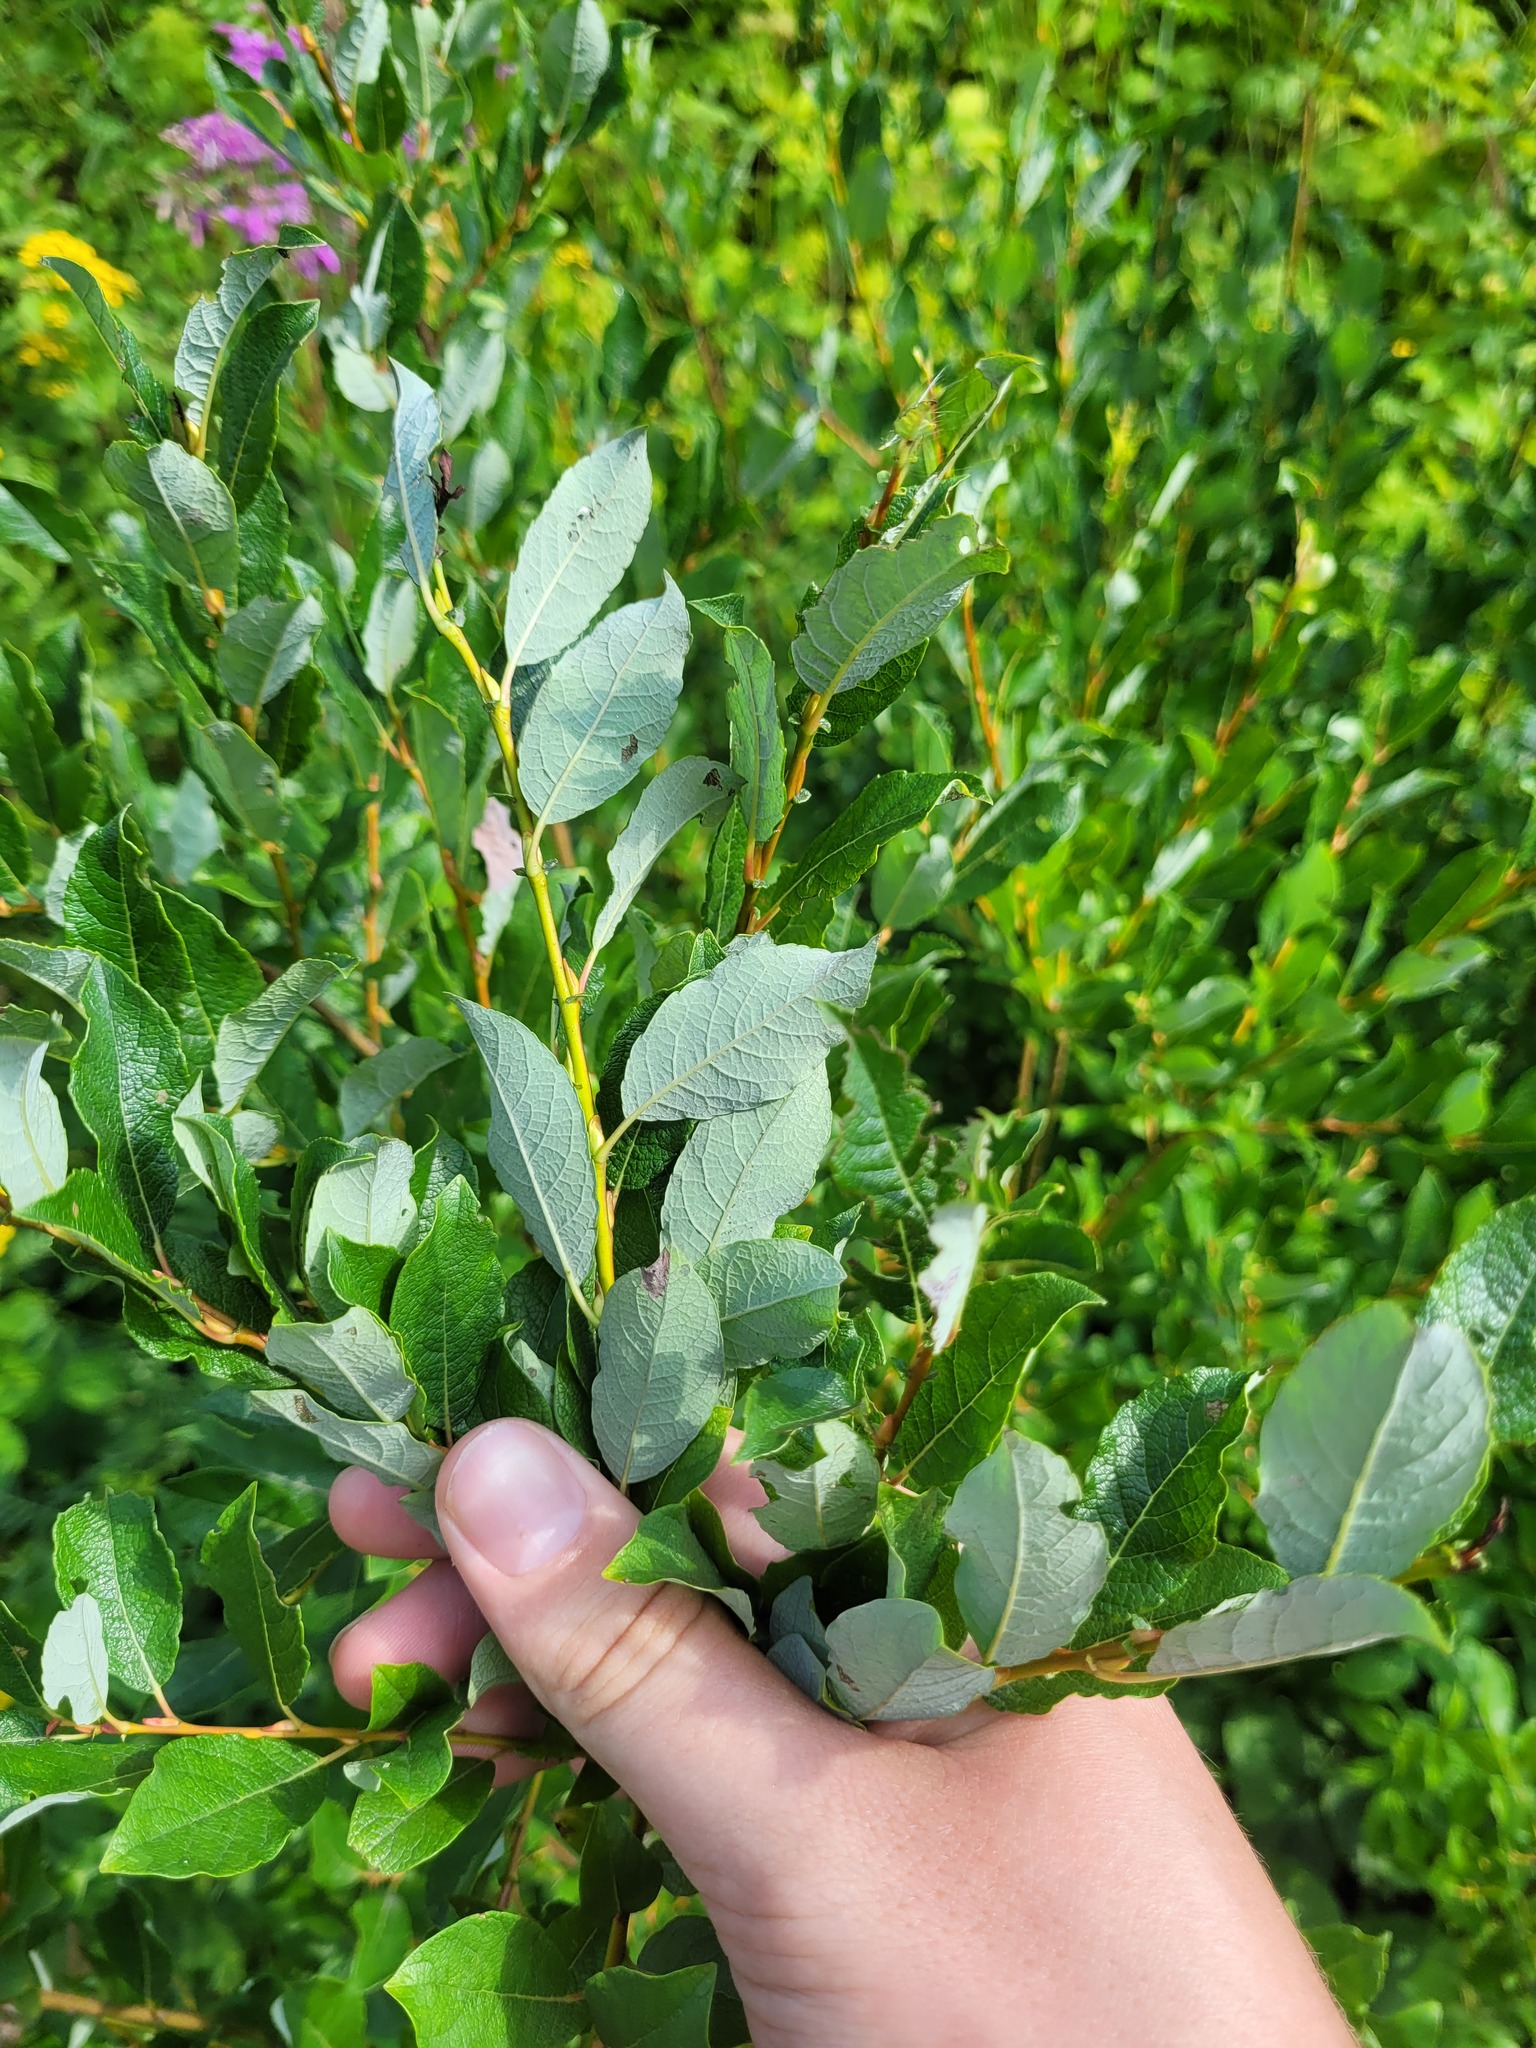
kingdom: Plantae
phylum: Tracheophyta
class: Magnoliopsida
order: Malpighiales
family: Salicaceae
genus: Salix
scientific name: Salix starkeana
